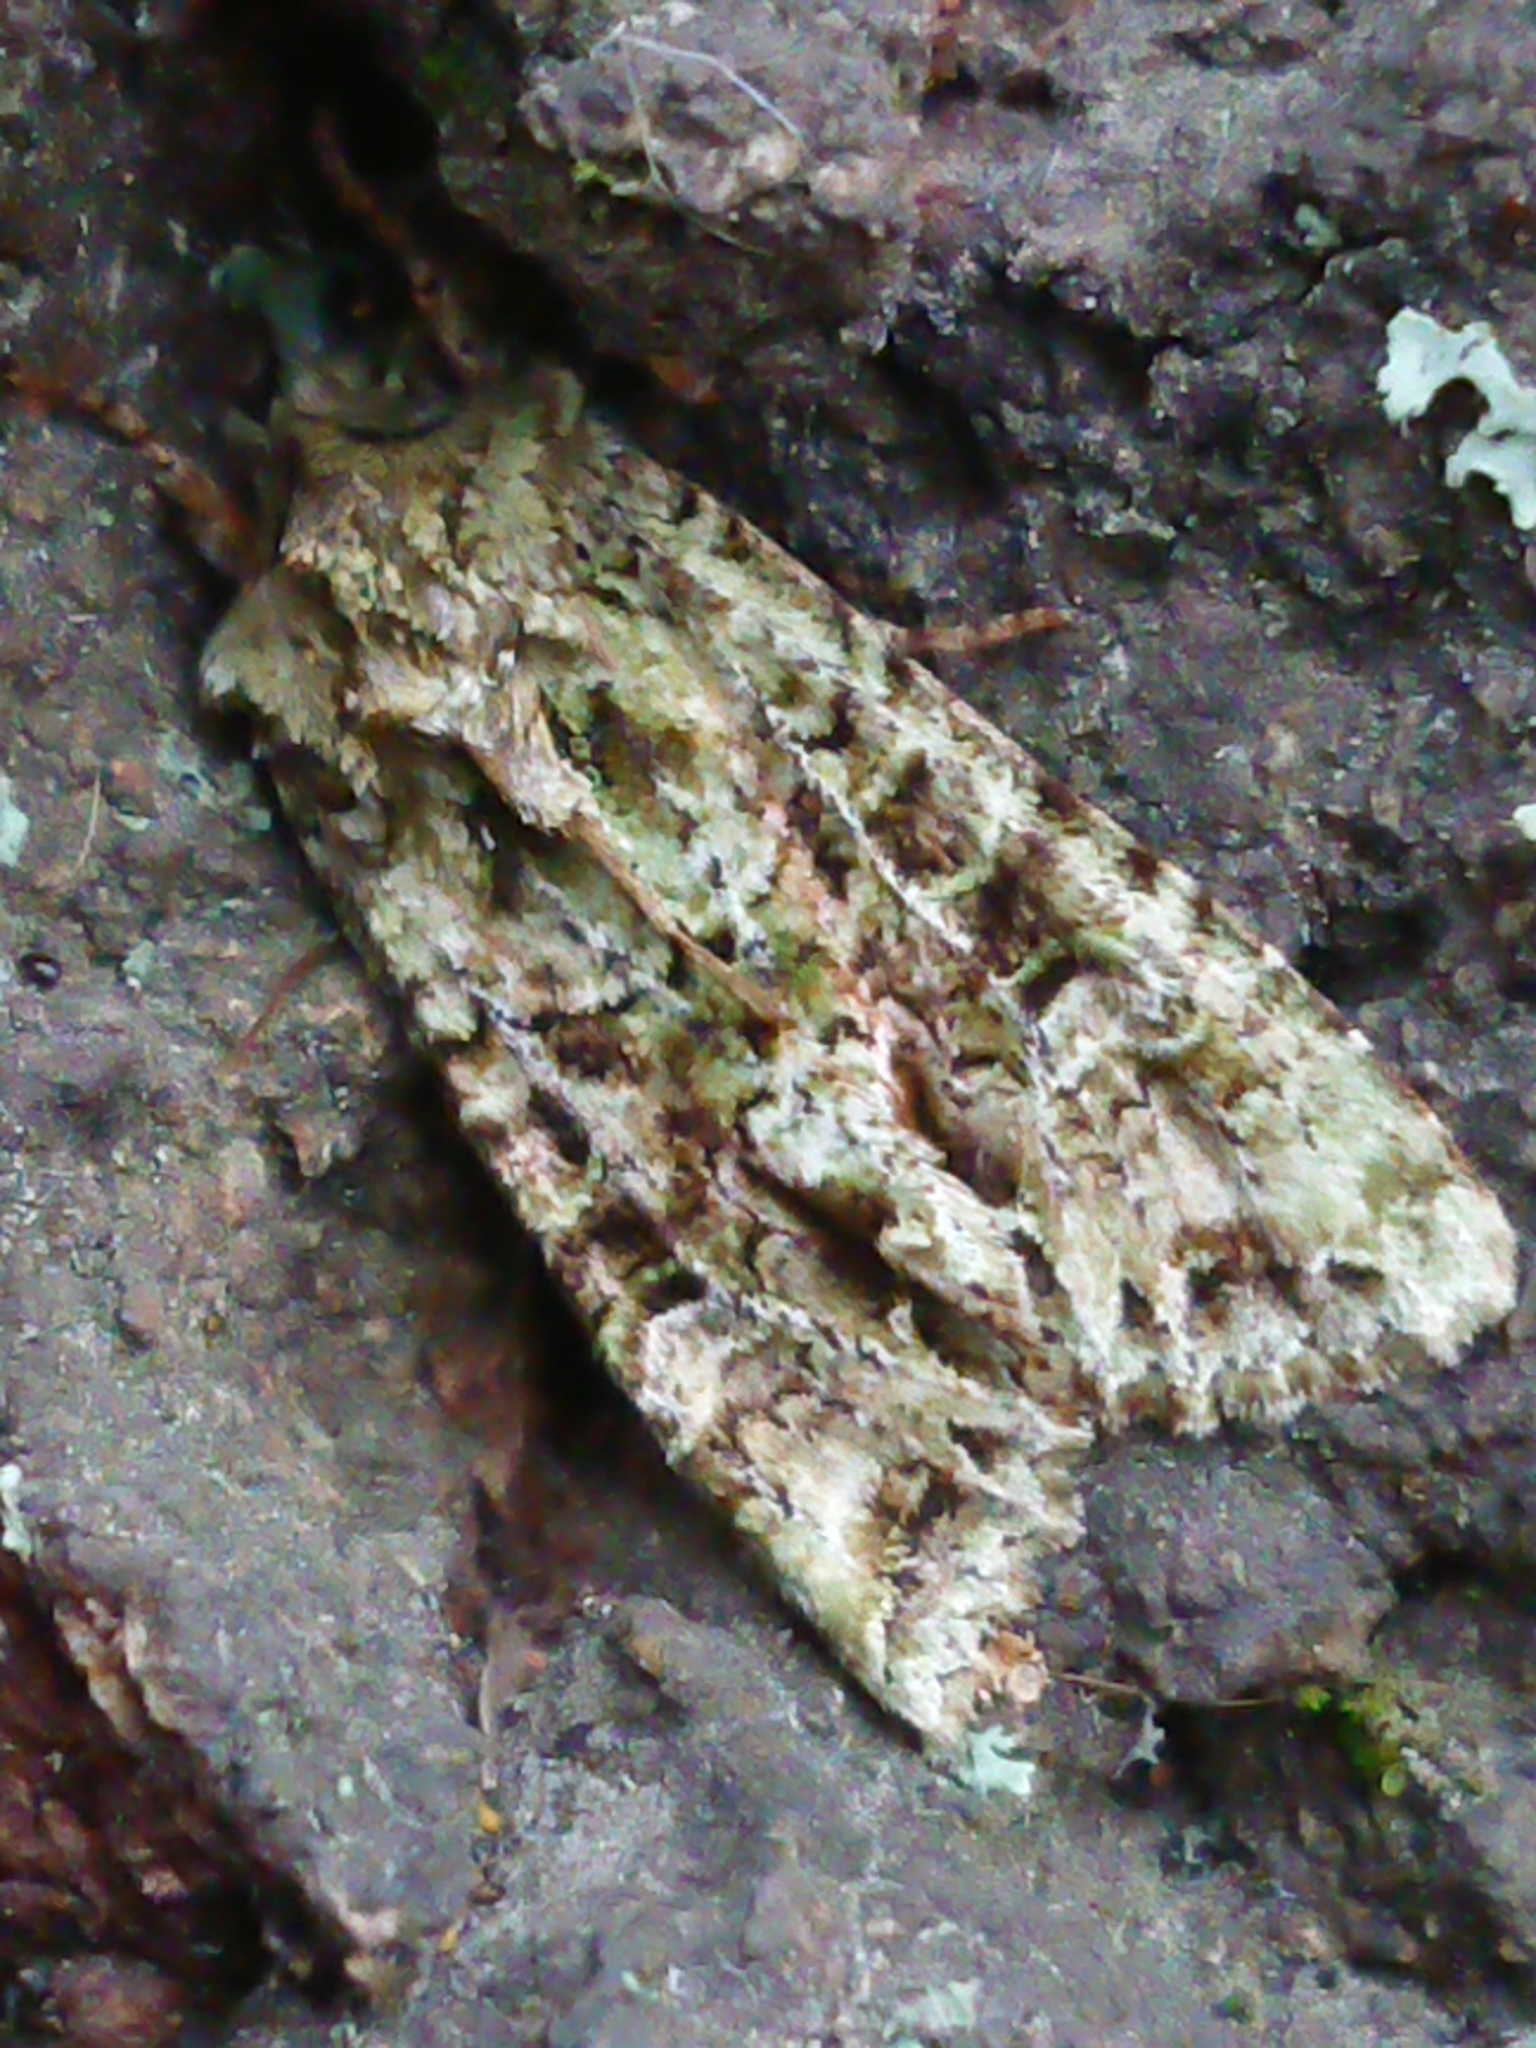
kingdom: Animalia
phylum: Arthropoda
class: Insecta
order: Lepidoptera
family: Noctuidae
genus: Ichneutica
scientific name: Ichneutica
